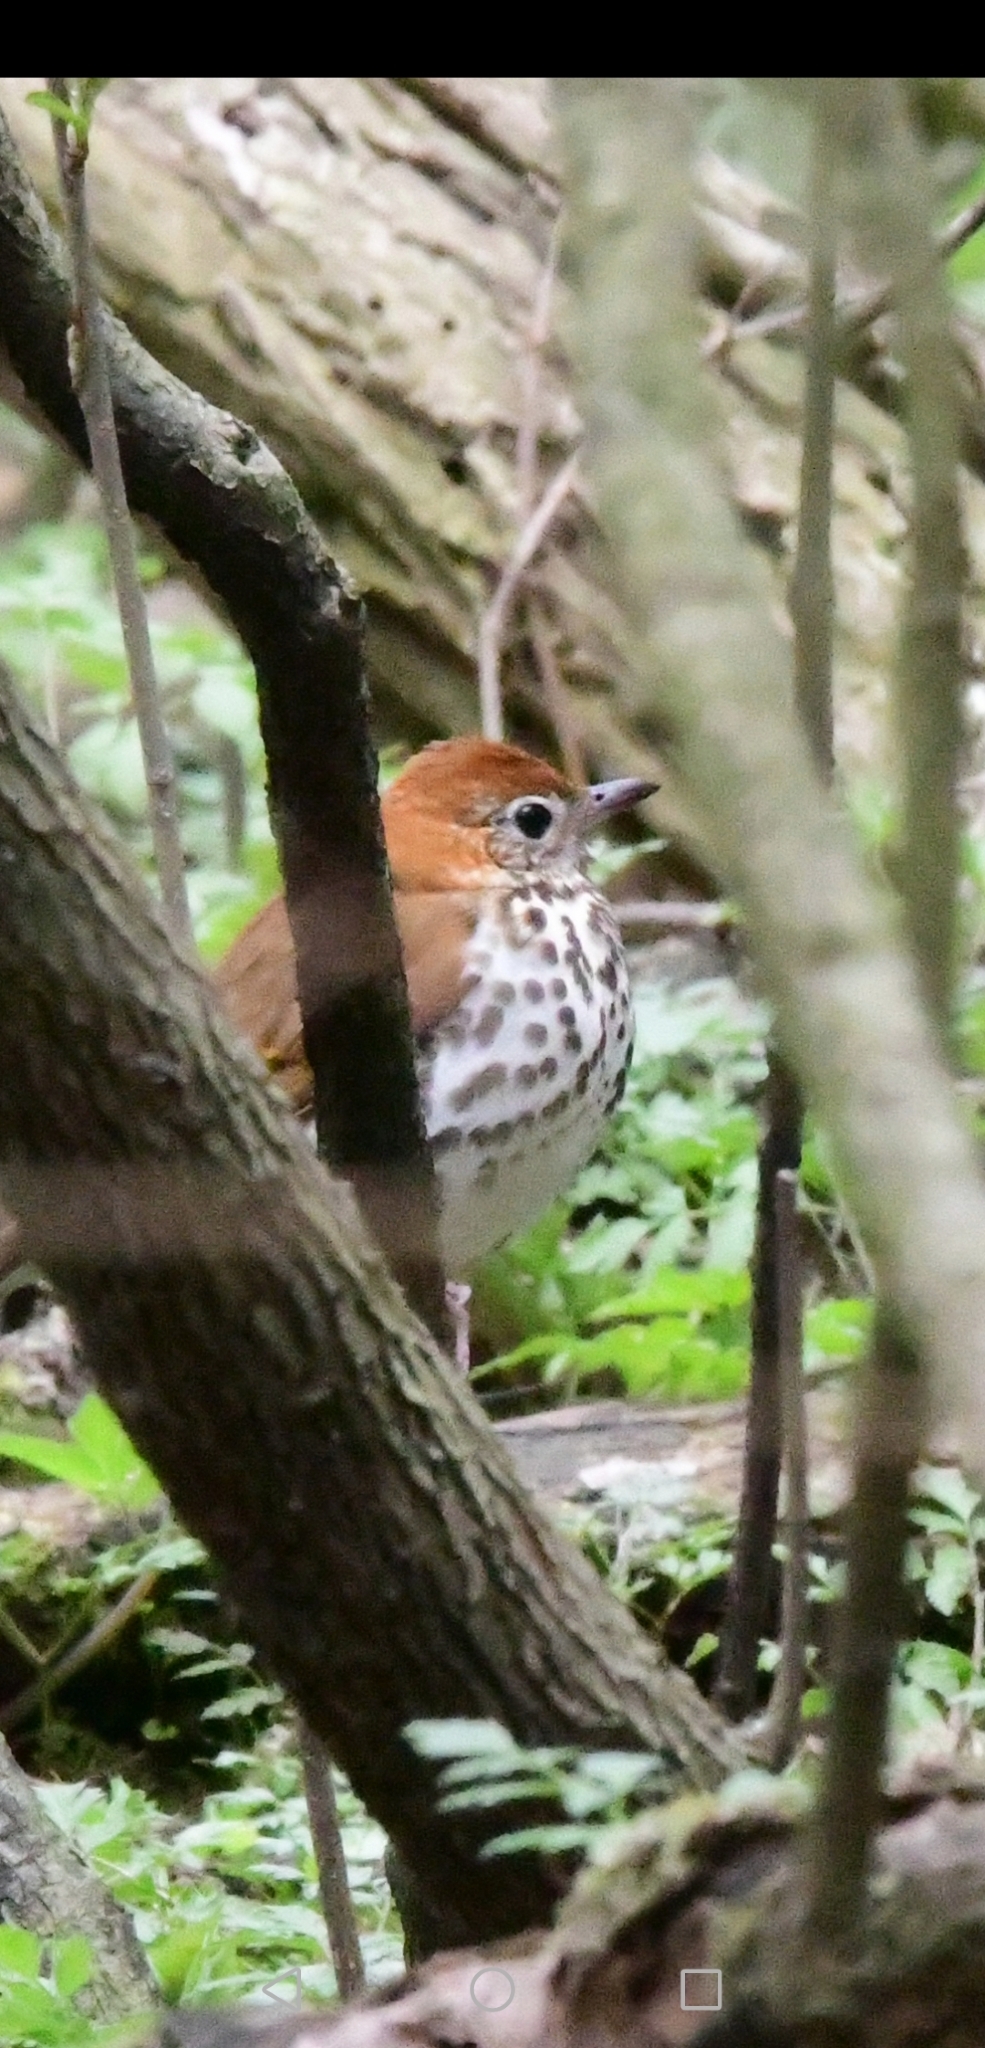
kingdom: Animalia
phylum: Chordata
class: Aves
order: Passeriformes
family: Turdidae
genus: Hylocichla
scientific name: Hylocichla mustelina
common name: Wood thrush
